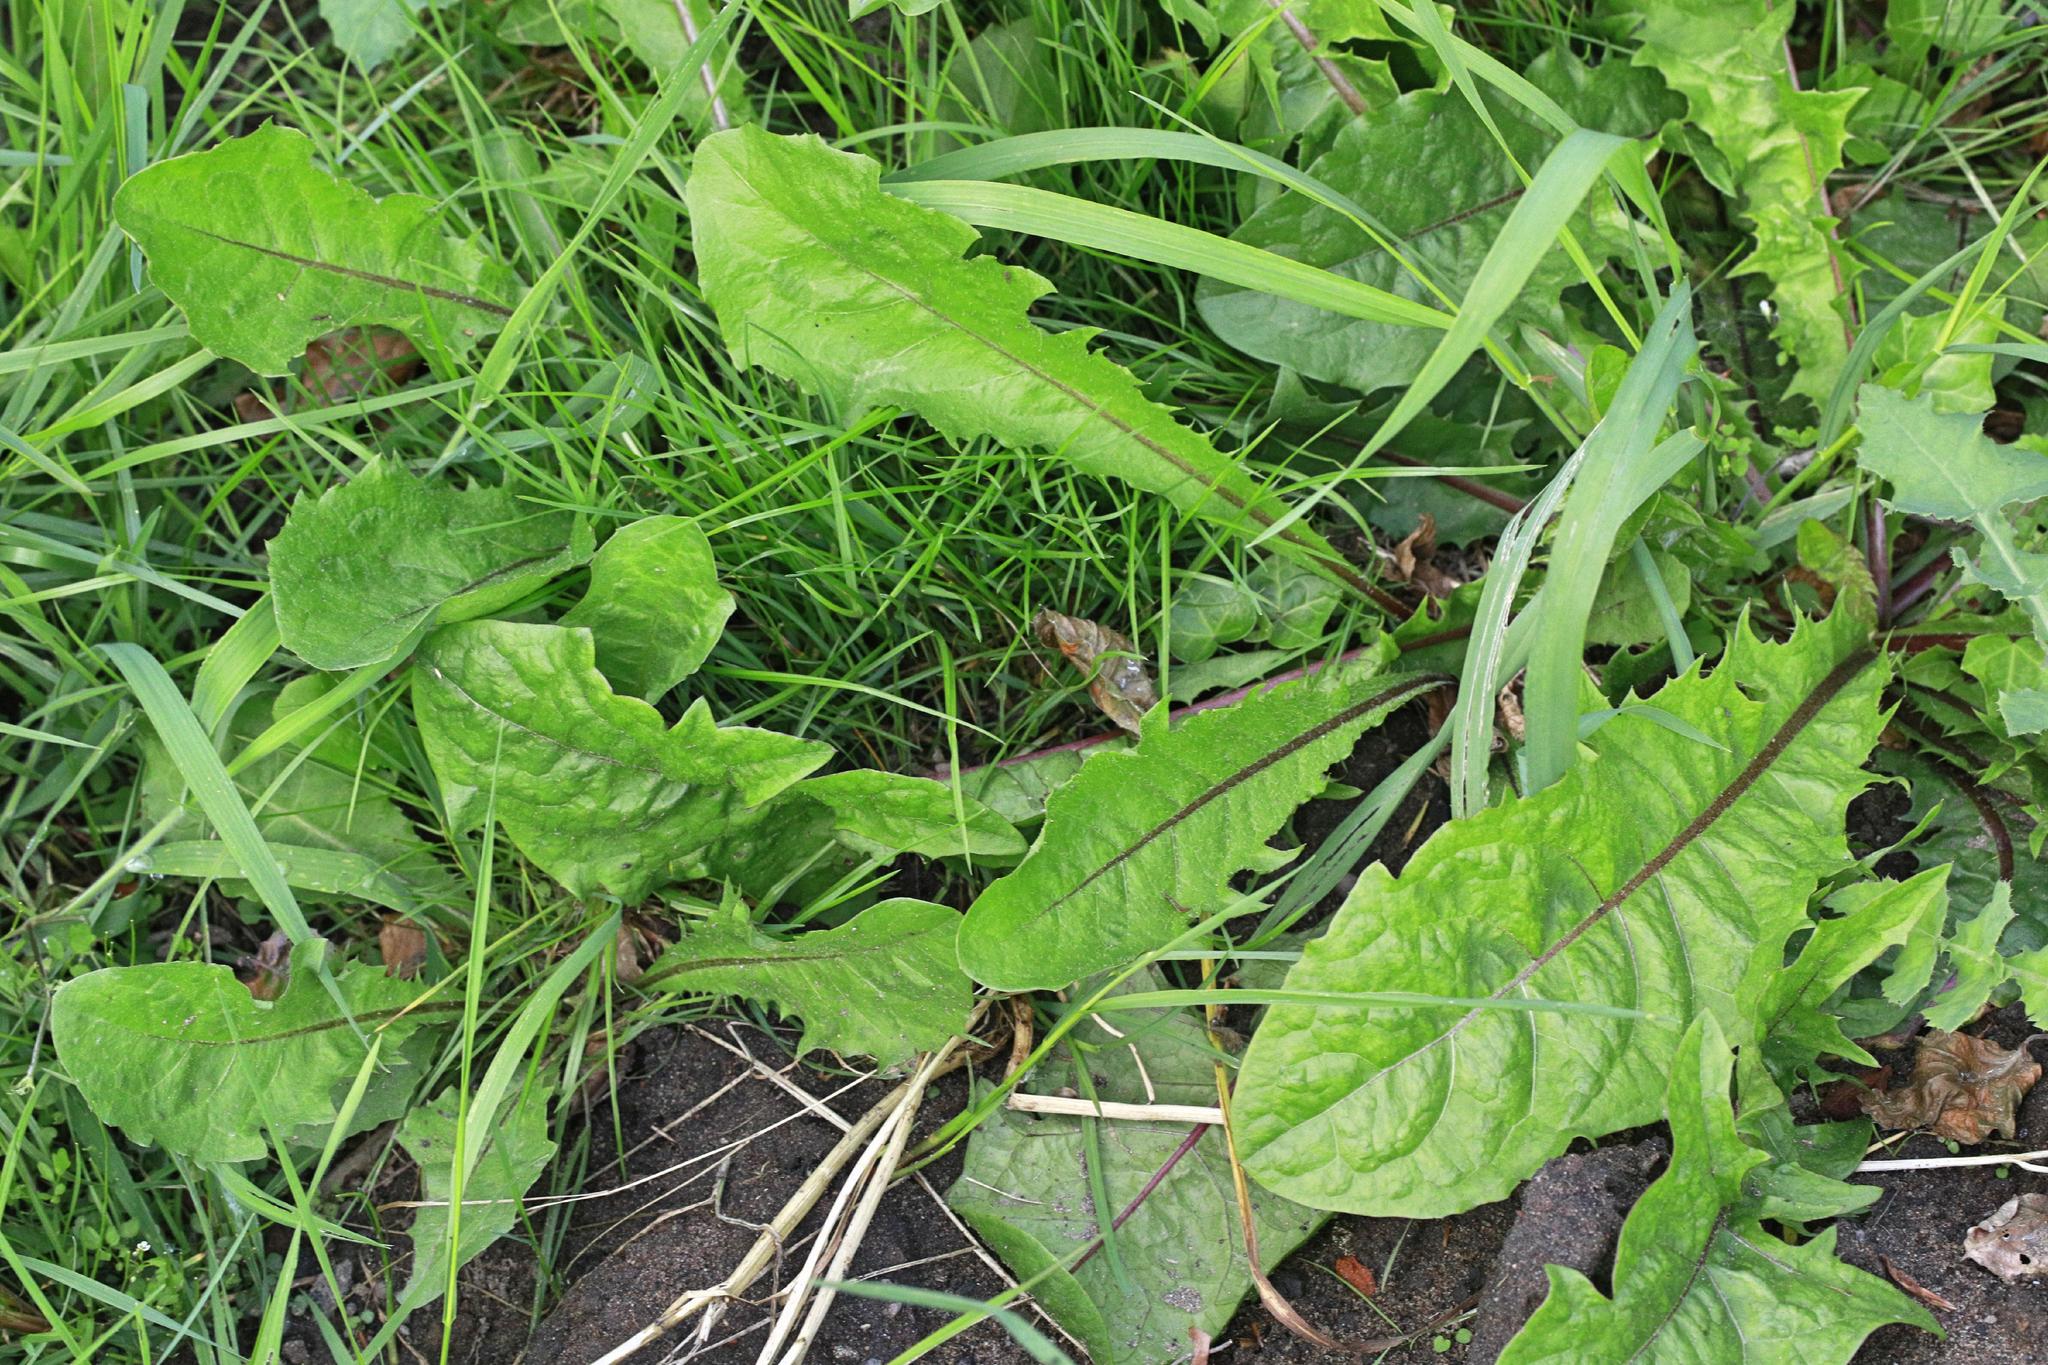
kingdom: Plantae
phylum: Tracheophyta
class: Magnoliopsida
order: Asterales
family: Asteraceae
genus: Taraxacum
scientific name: Taraxacum officinale
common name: Common dandelion
